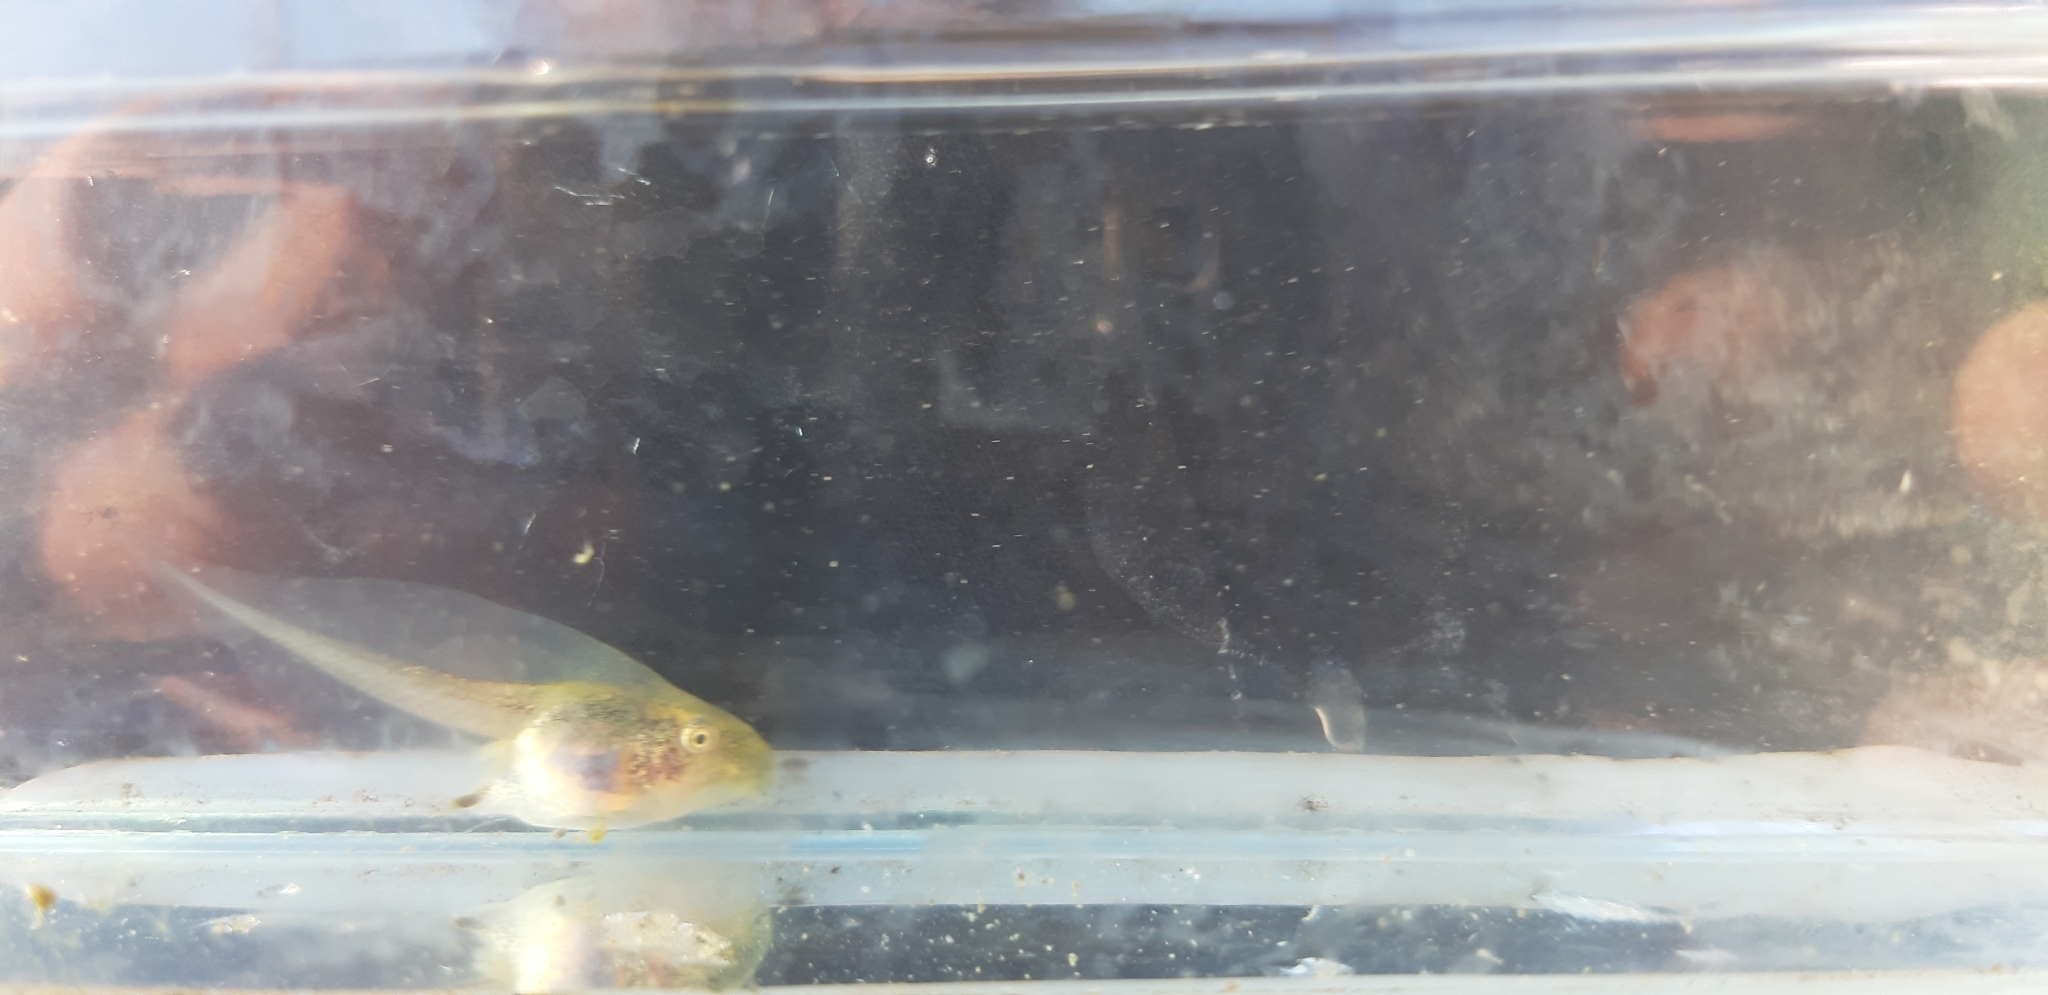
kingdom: Animalia
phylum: Chordata
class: Amphibia
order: Anura
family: Hylidae
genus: Hyla
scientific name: Hyla intermedia
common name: Italian tree frog
